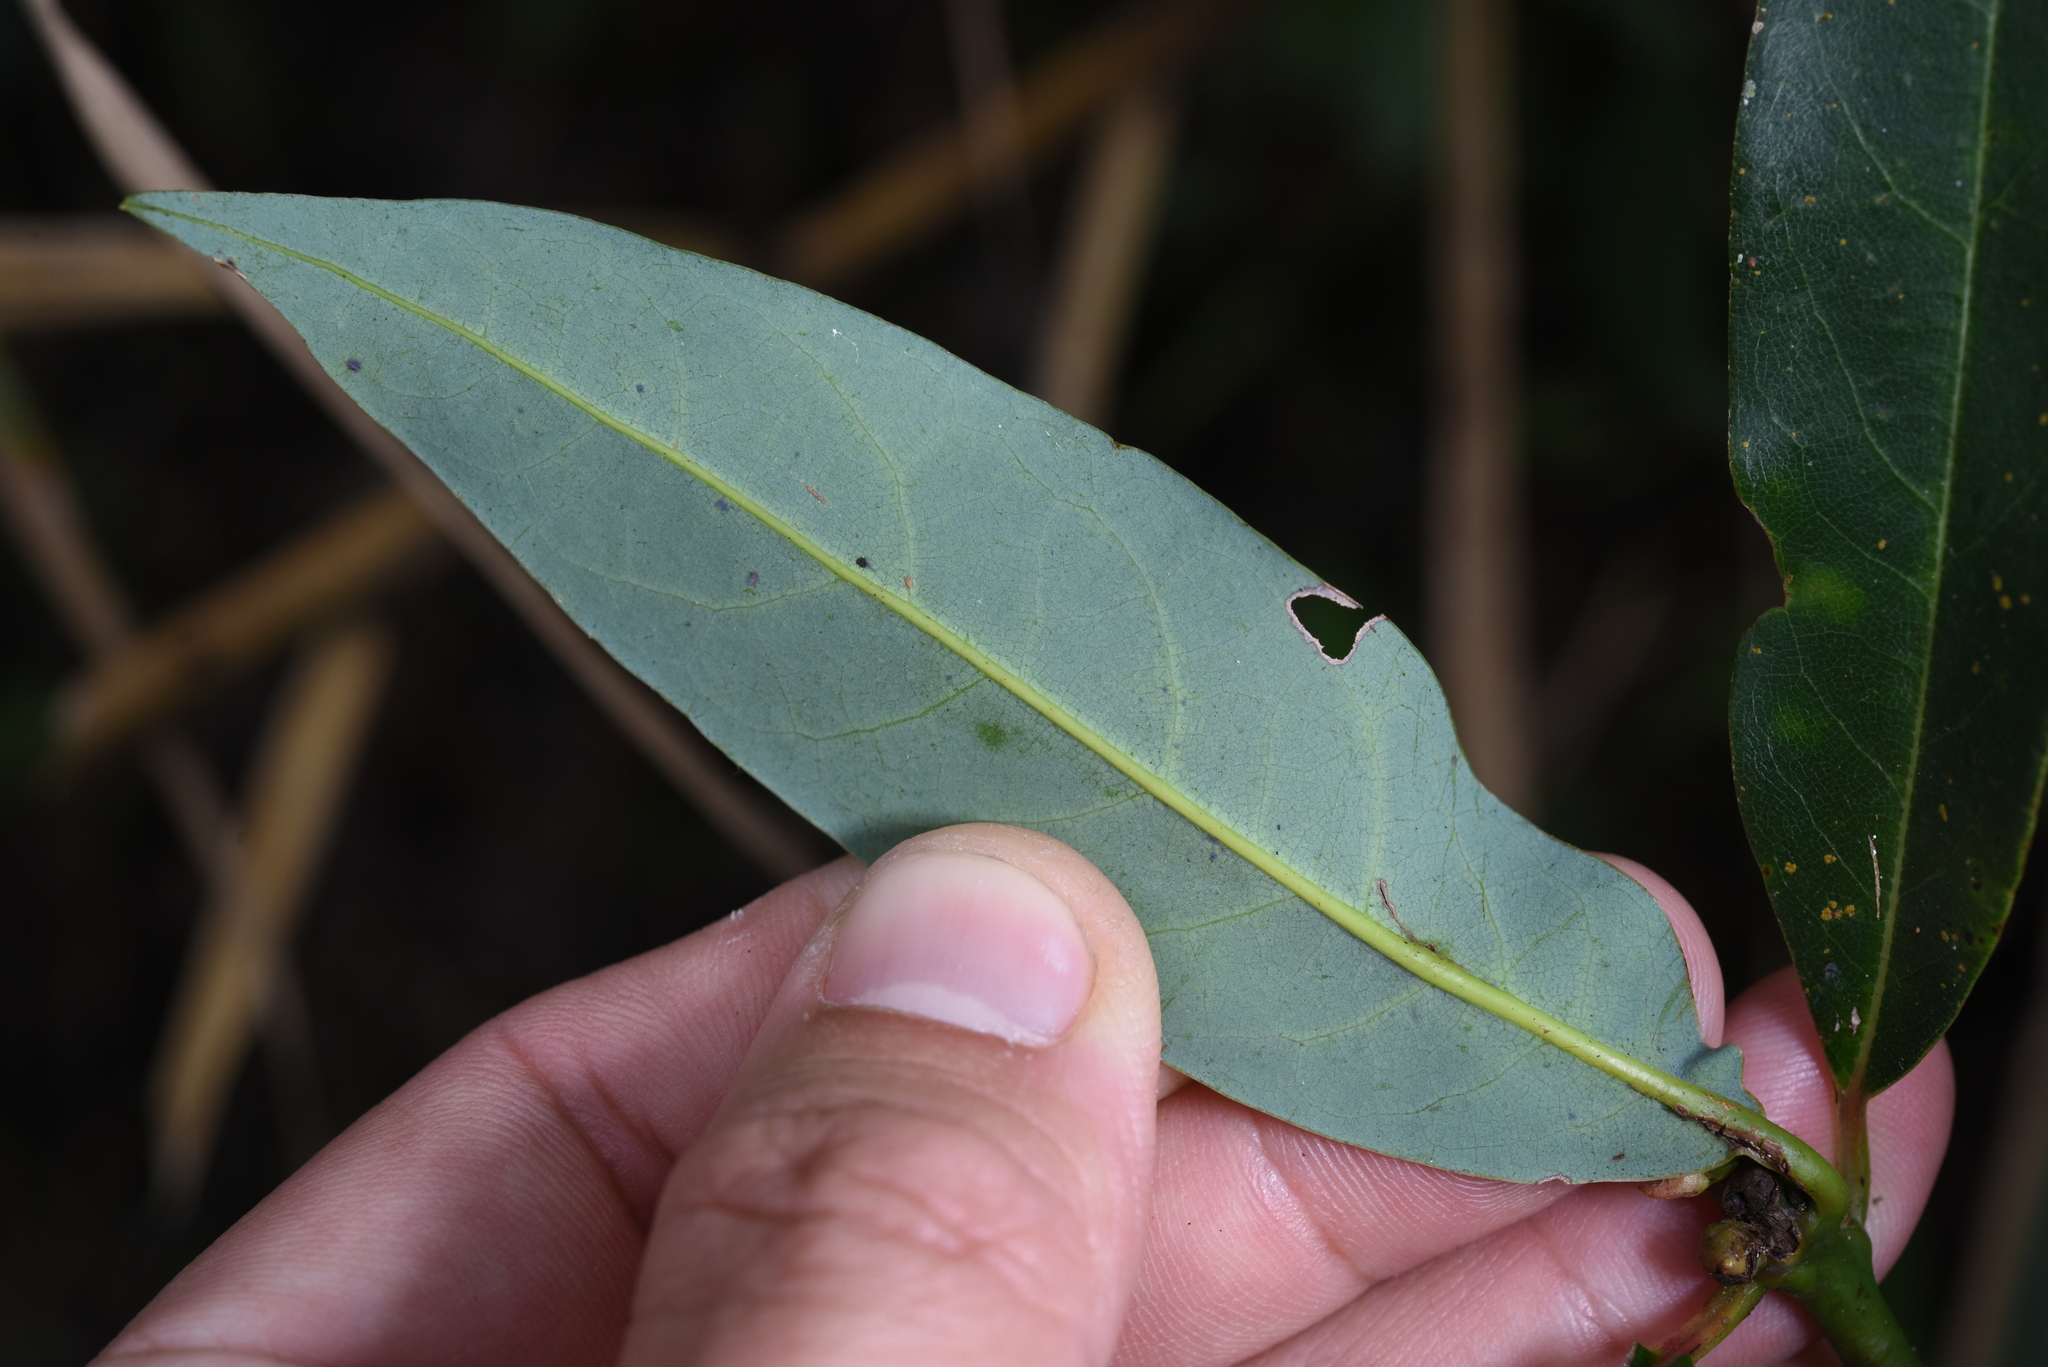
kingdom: Plantae
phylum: Tracheophyta
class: Magnoliopsida
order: Laurales
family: Lauraceae
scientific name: Lauraceae
